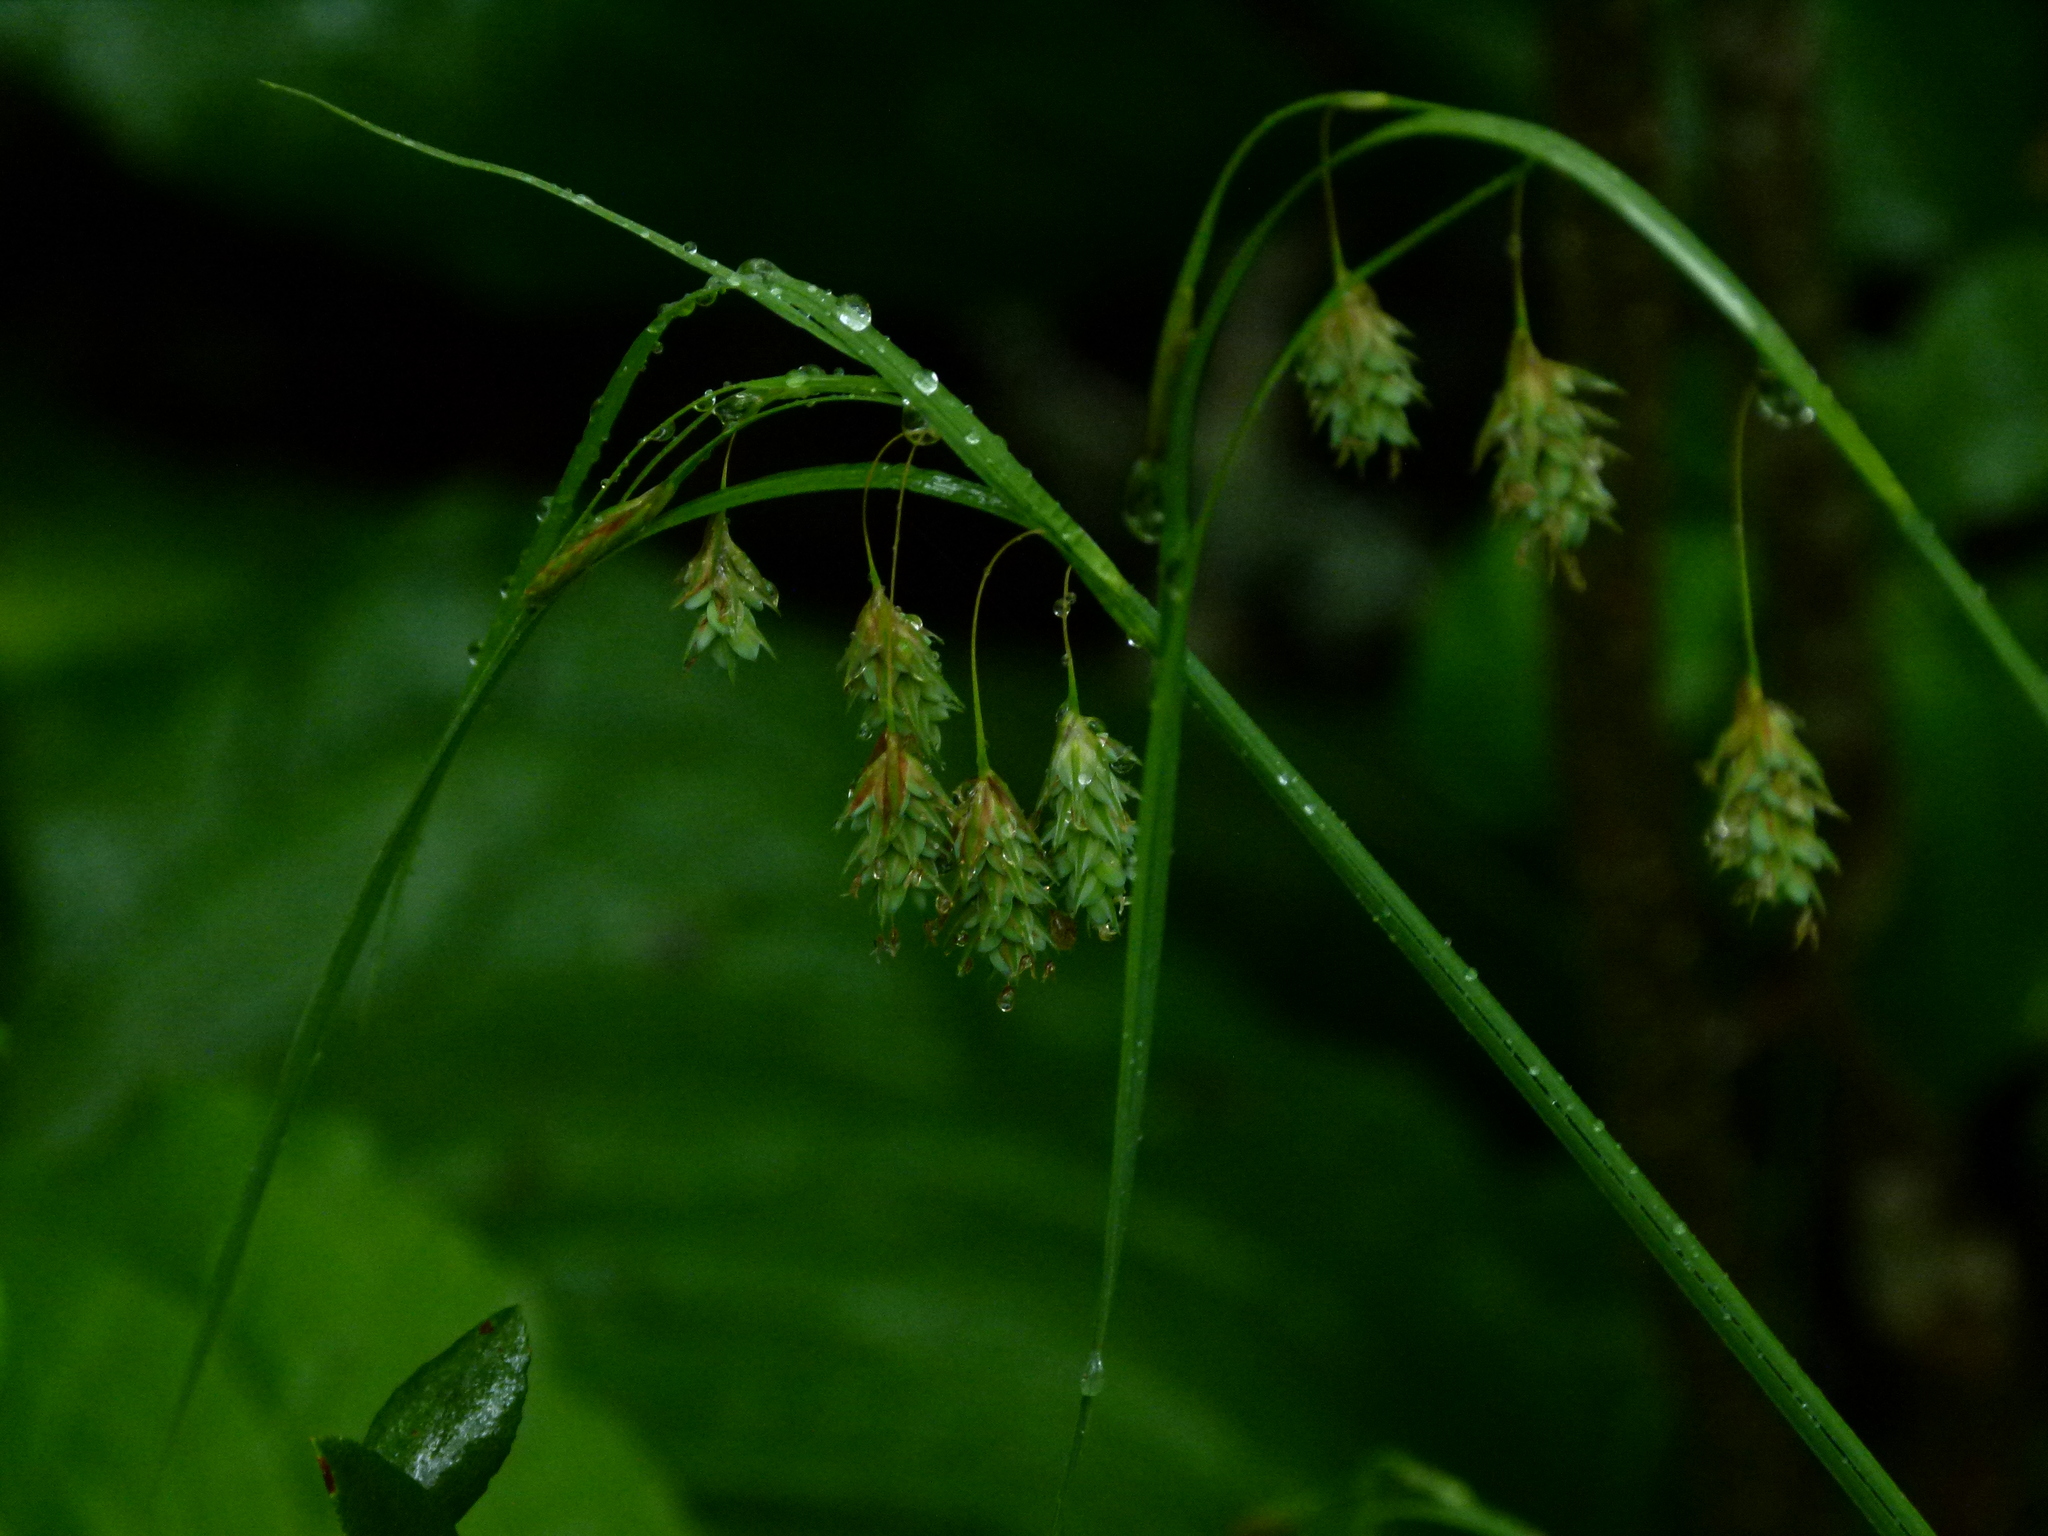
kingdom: Plantae
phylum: Tracheophyta
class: Liliopsida
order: Poales
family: Cyperaceae
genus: Carex
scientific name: Carex magellanica
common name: Bog sedge
